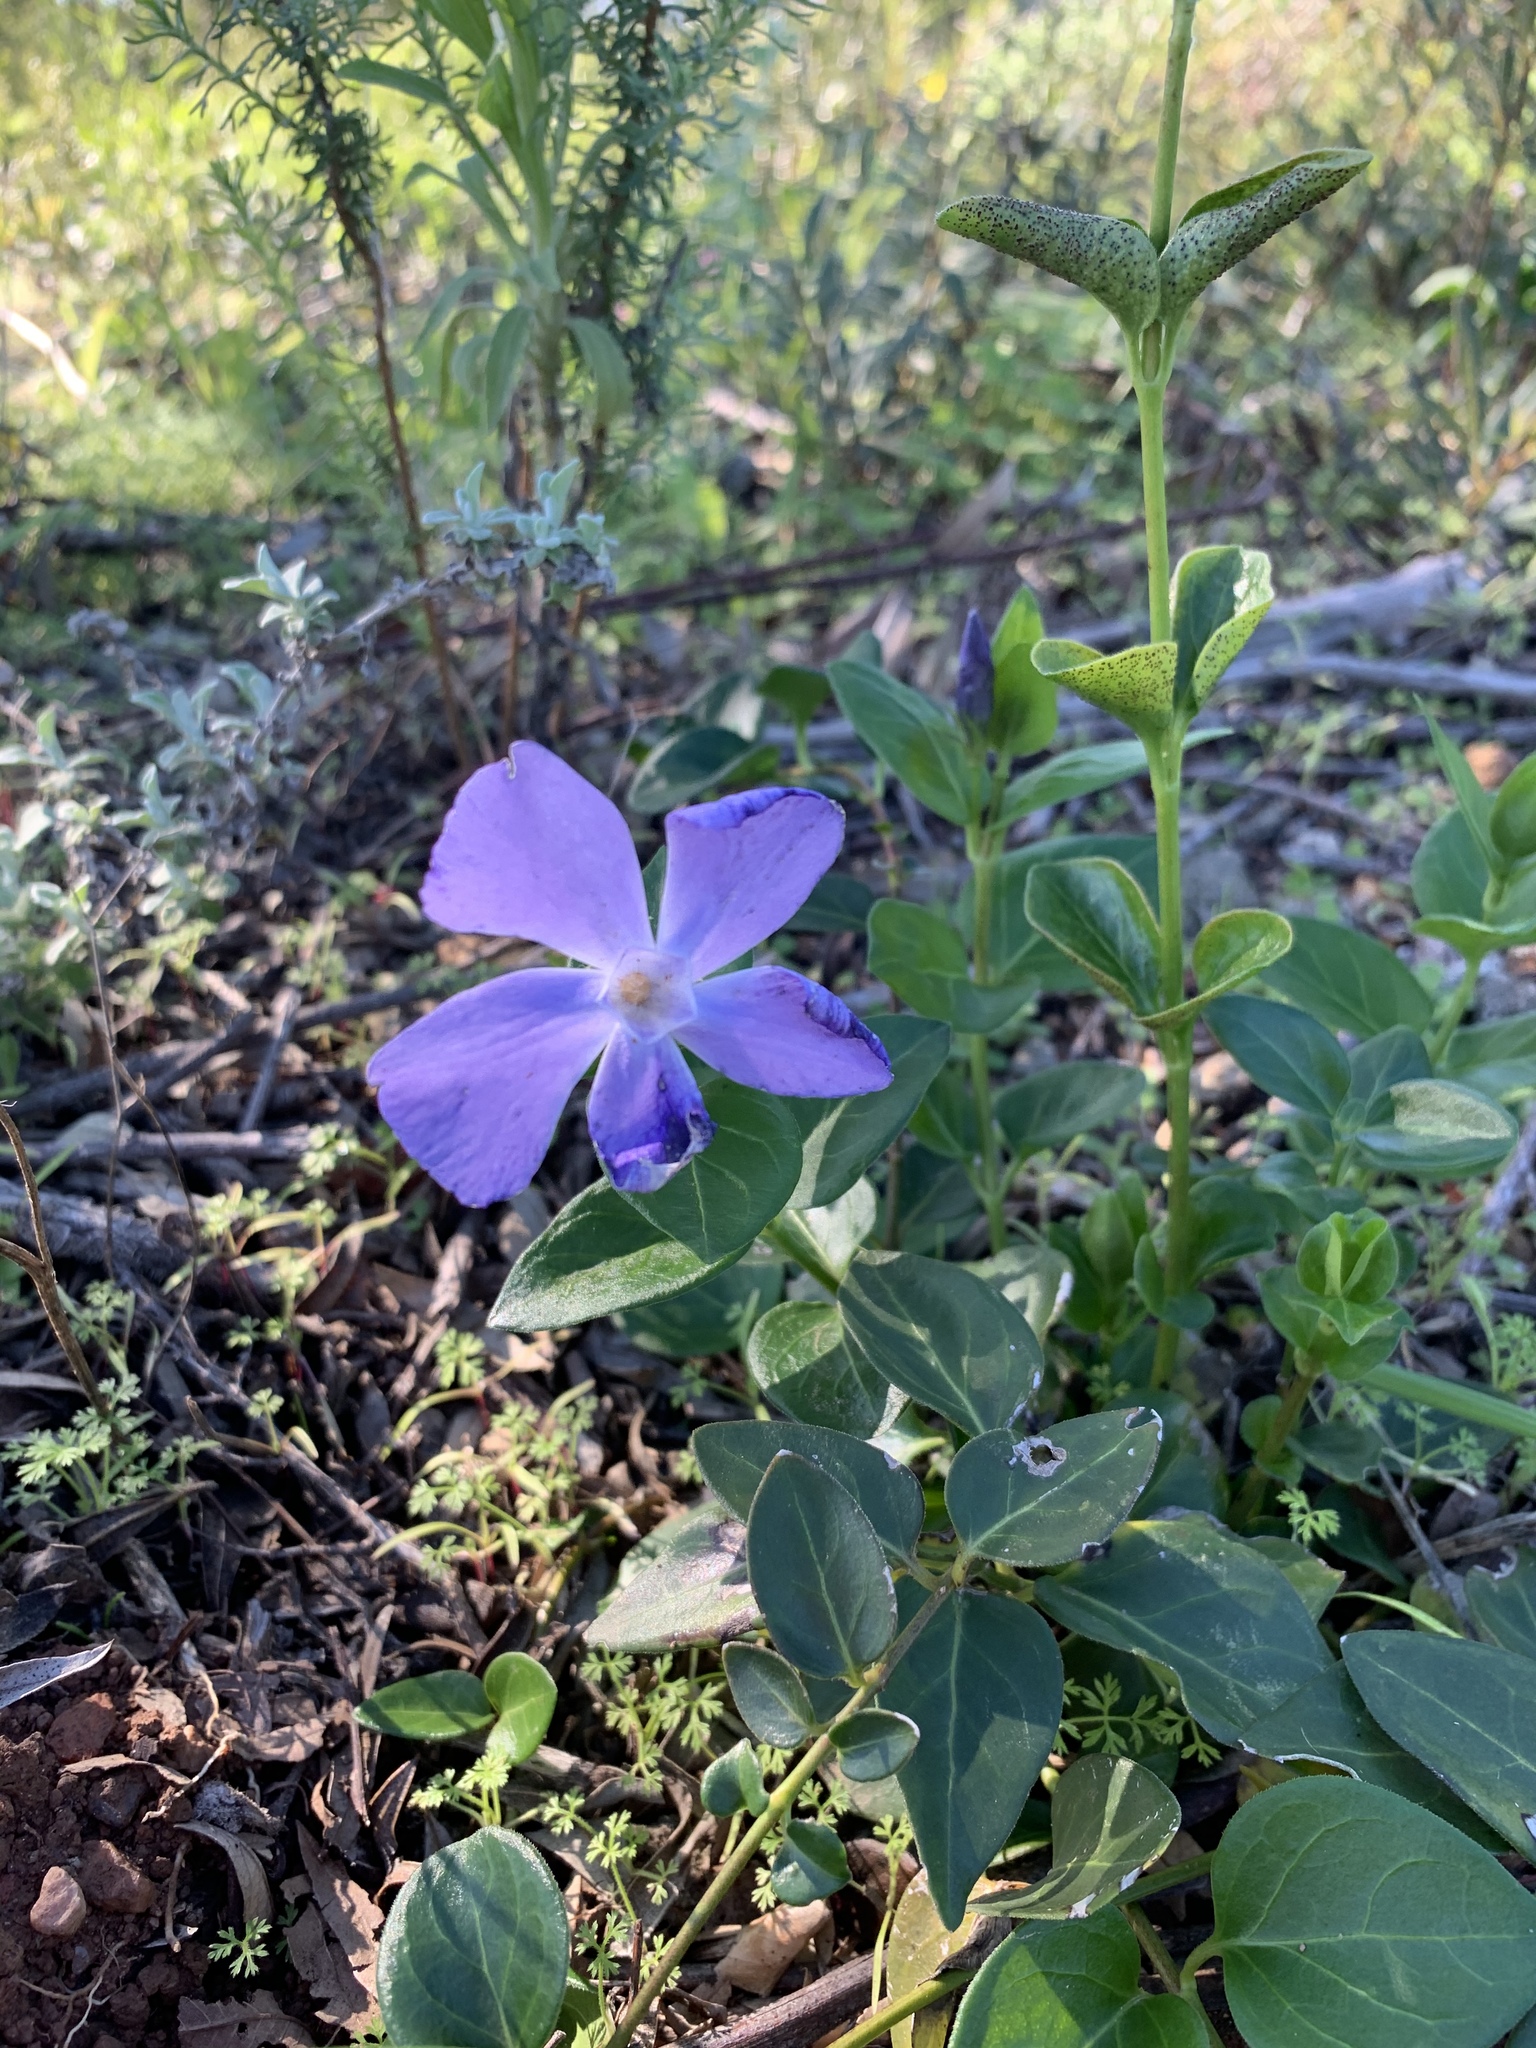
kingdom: Plantae
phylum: Tracheophyta
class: Magnoliopsida
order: Gentianales
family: Apocynaceae
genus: Vinca
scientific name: Vinca major
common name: Greater periwinkle
